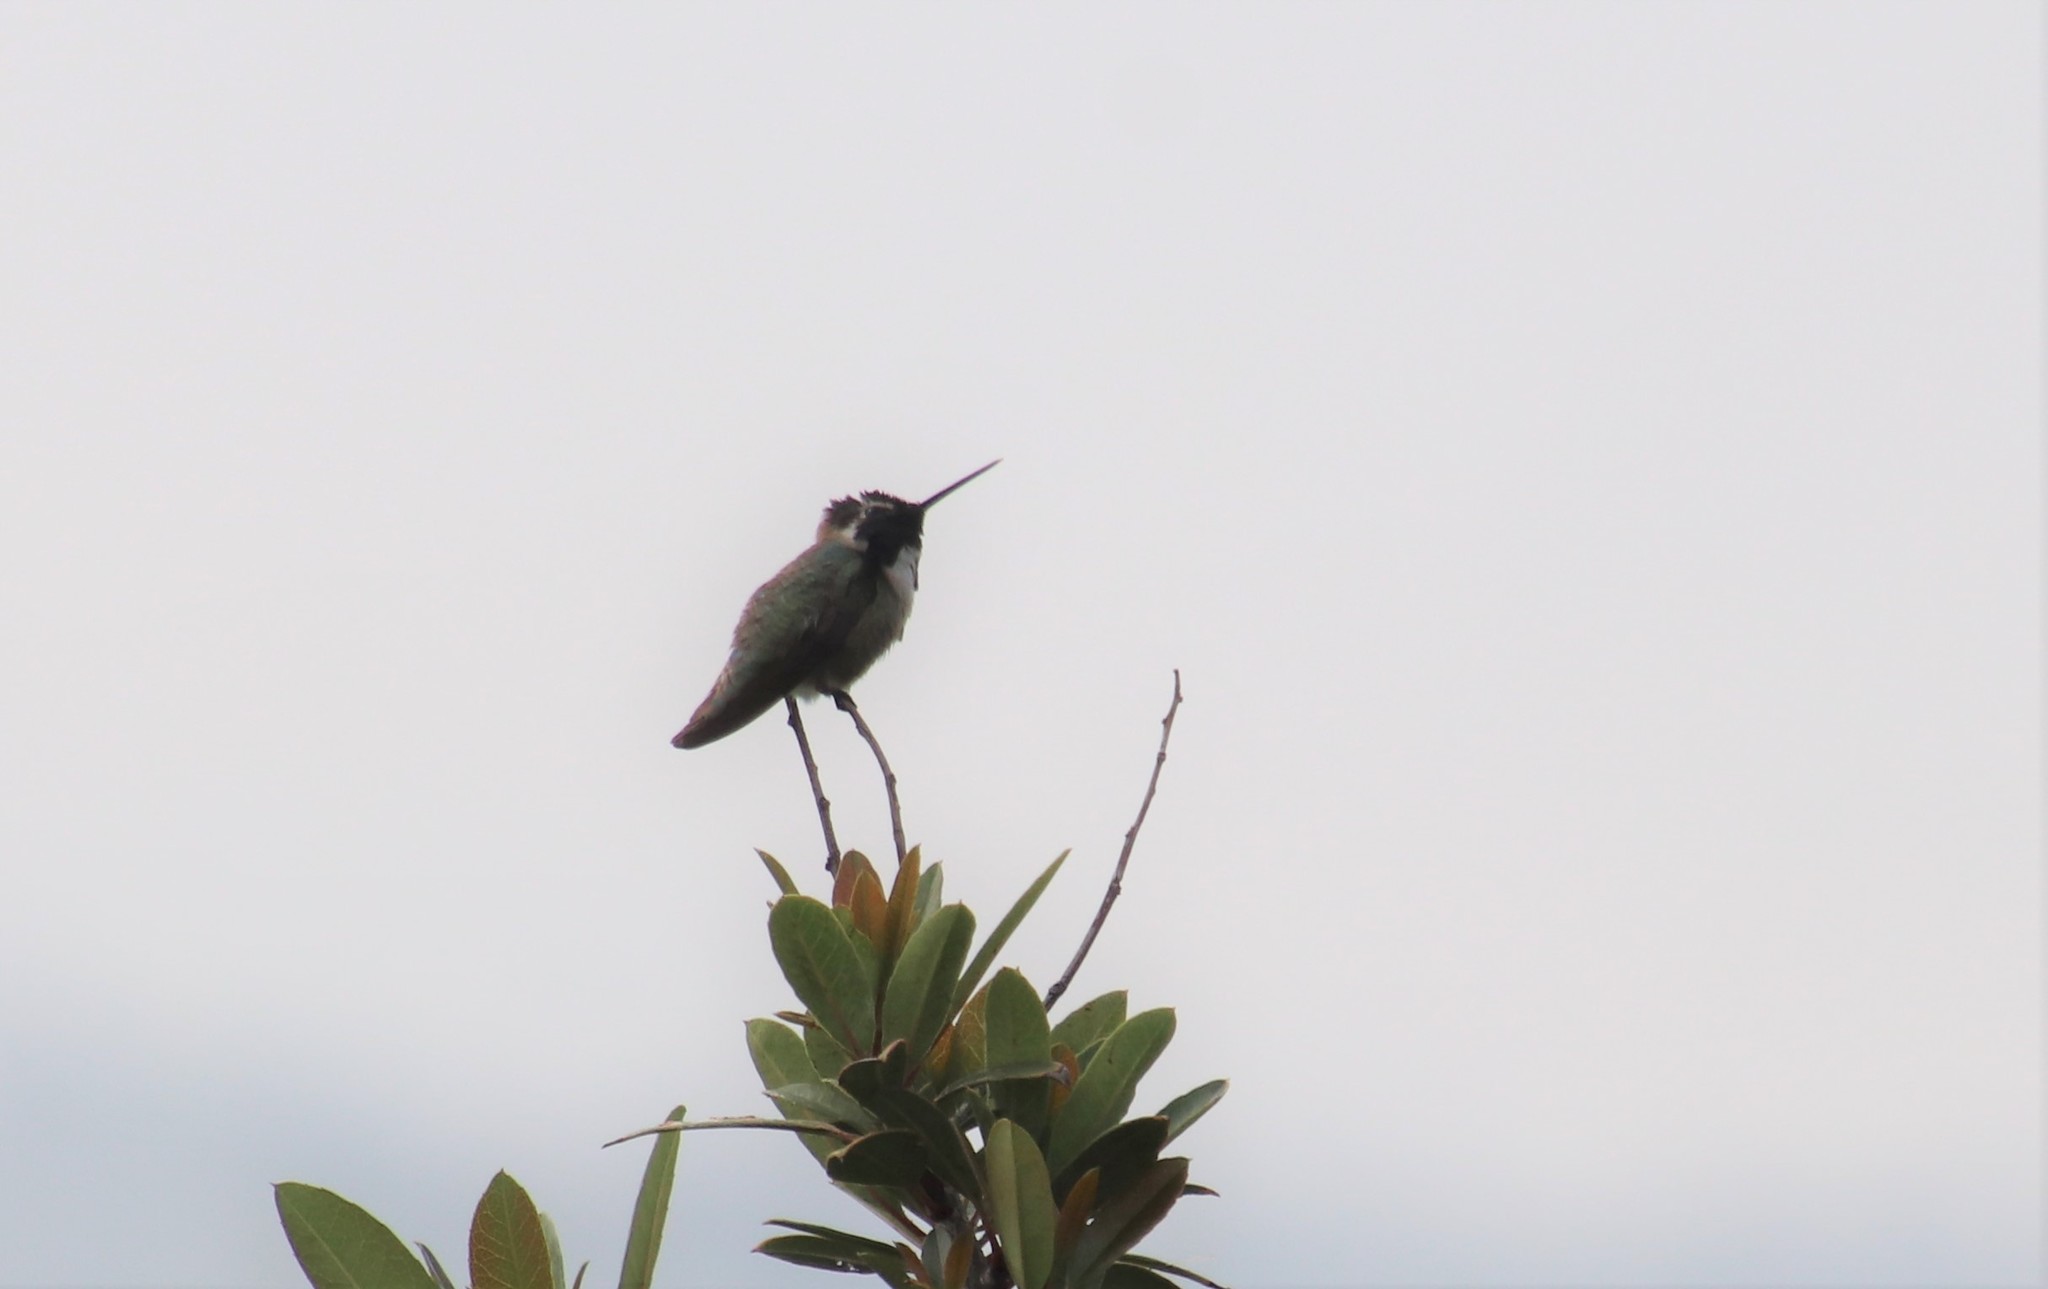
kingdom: Animalia
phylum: Chordata
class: Aves
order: Apodiformes
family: Trochilidae
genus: Calypte
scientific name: Calypte costae
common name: Costa's hummingbird
